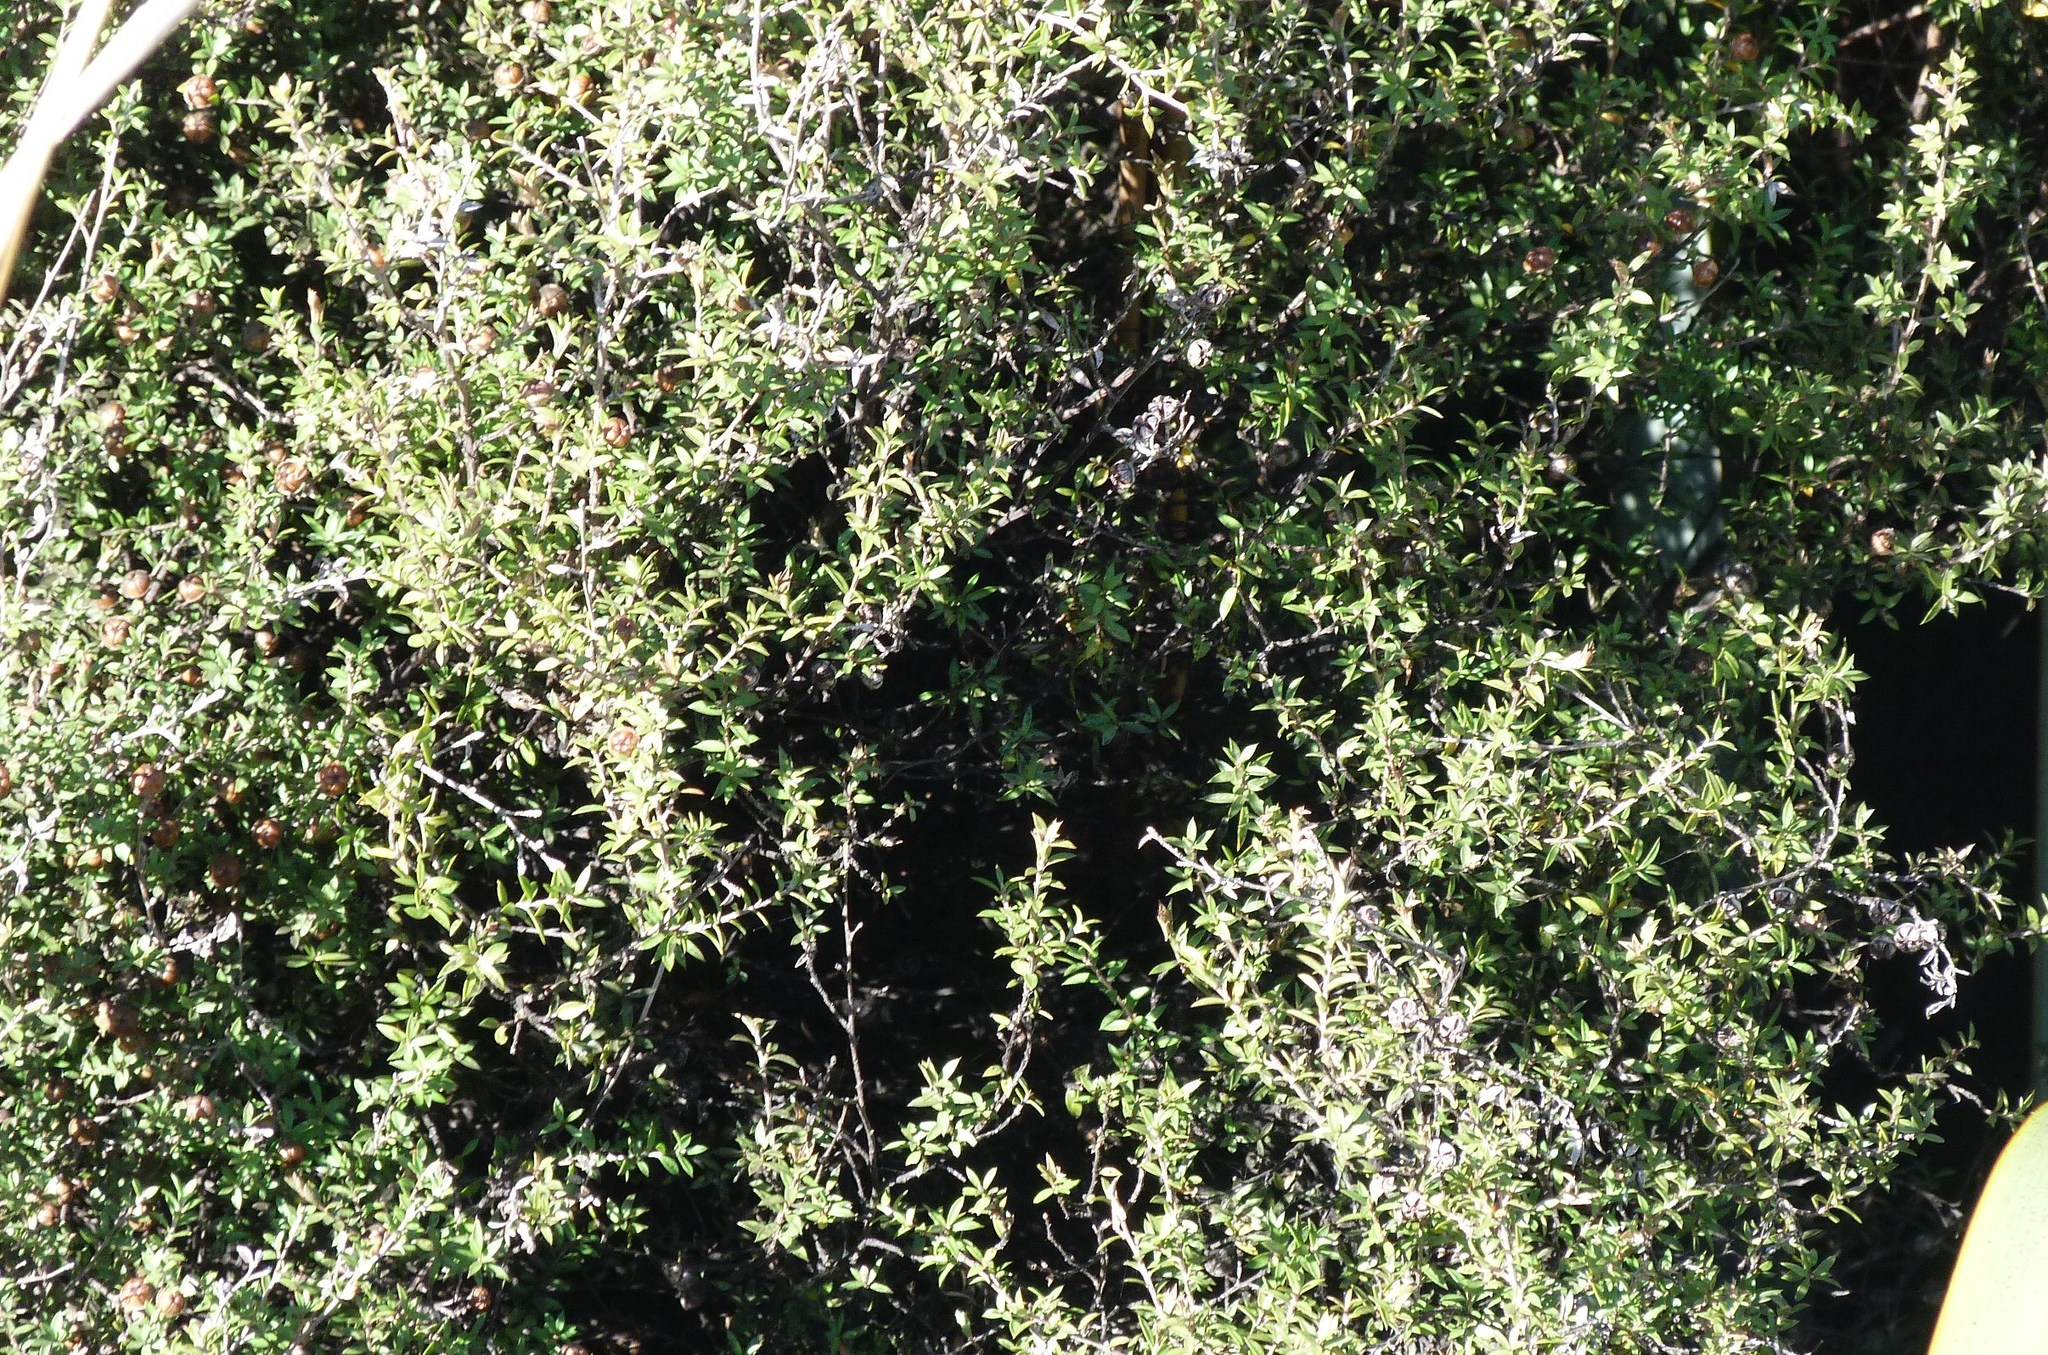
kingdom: Plantae
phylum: Tracheophyta
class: Magnoliopsida
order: Myrtales
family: Myrtaceae
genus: Leptospermum
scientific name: Leptospermum scoparium
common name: Broom tea-tree
